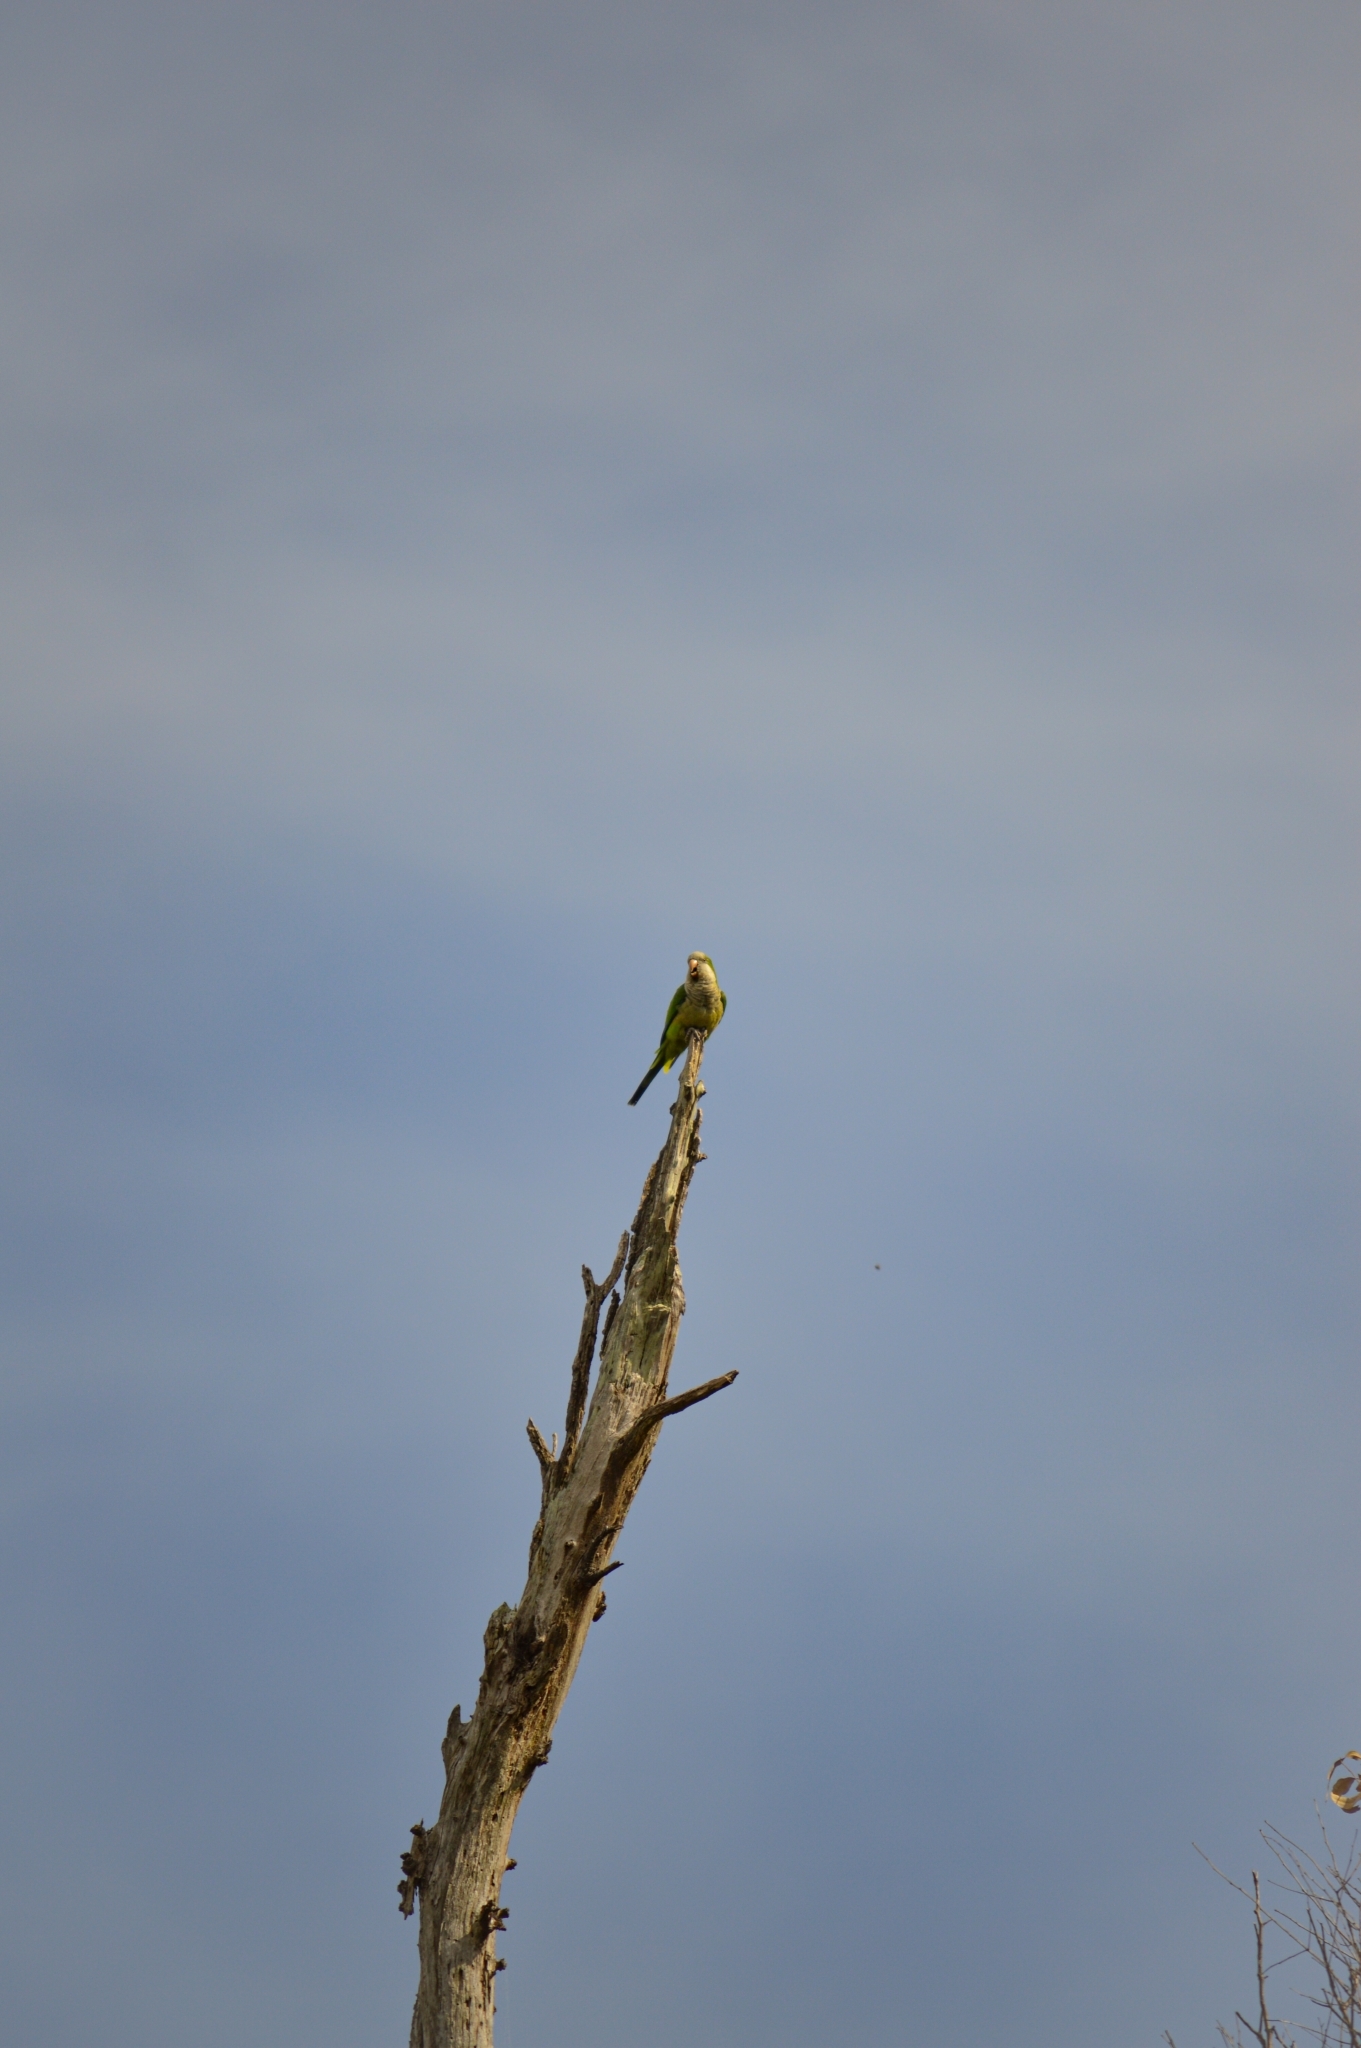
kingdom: Animalia
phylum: Chordata
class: Aves
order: Psittaciformes
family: Psittacidae
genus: Myiopsitta
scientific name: Myiopsitta monachus
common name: Monk parakeet
